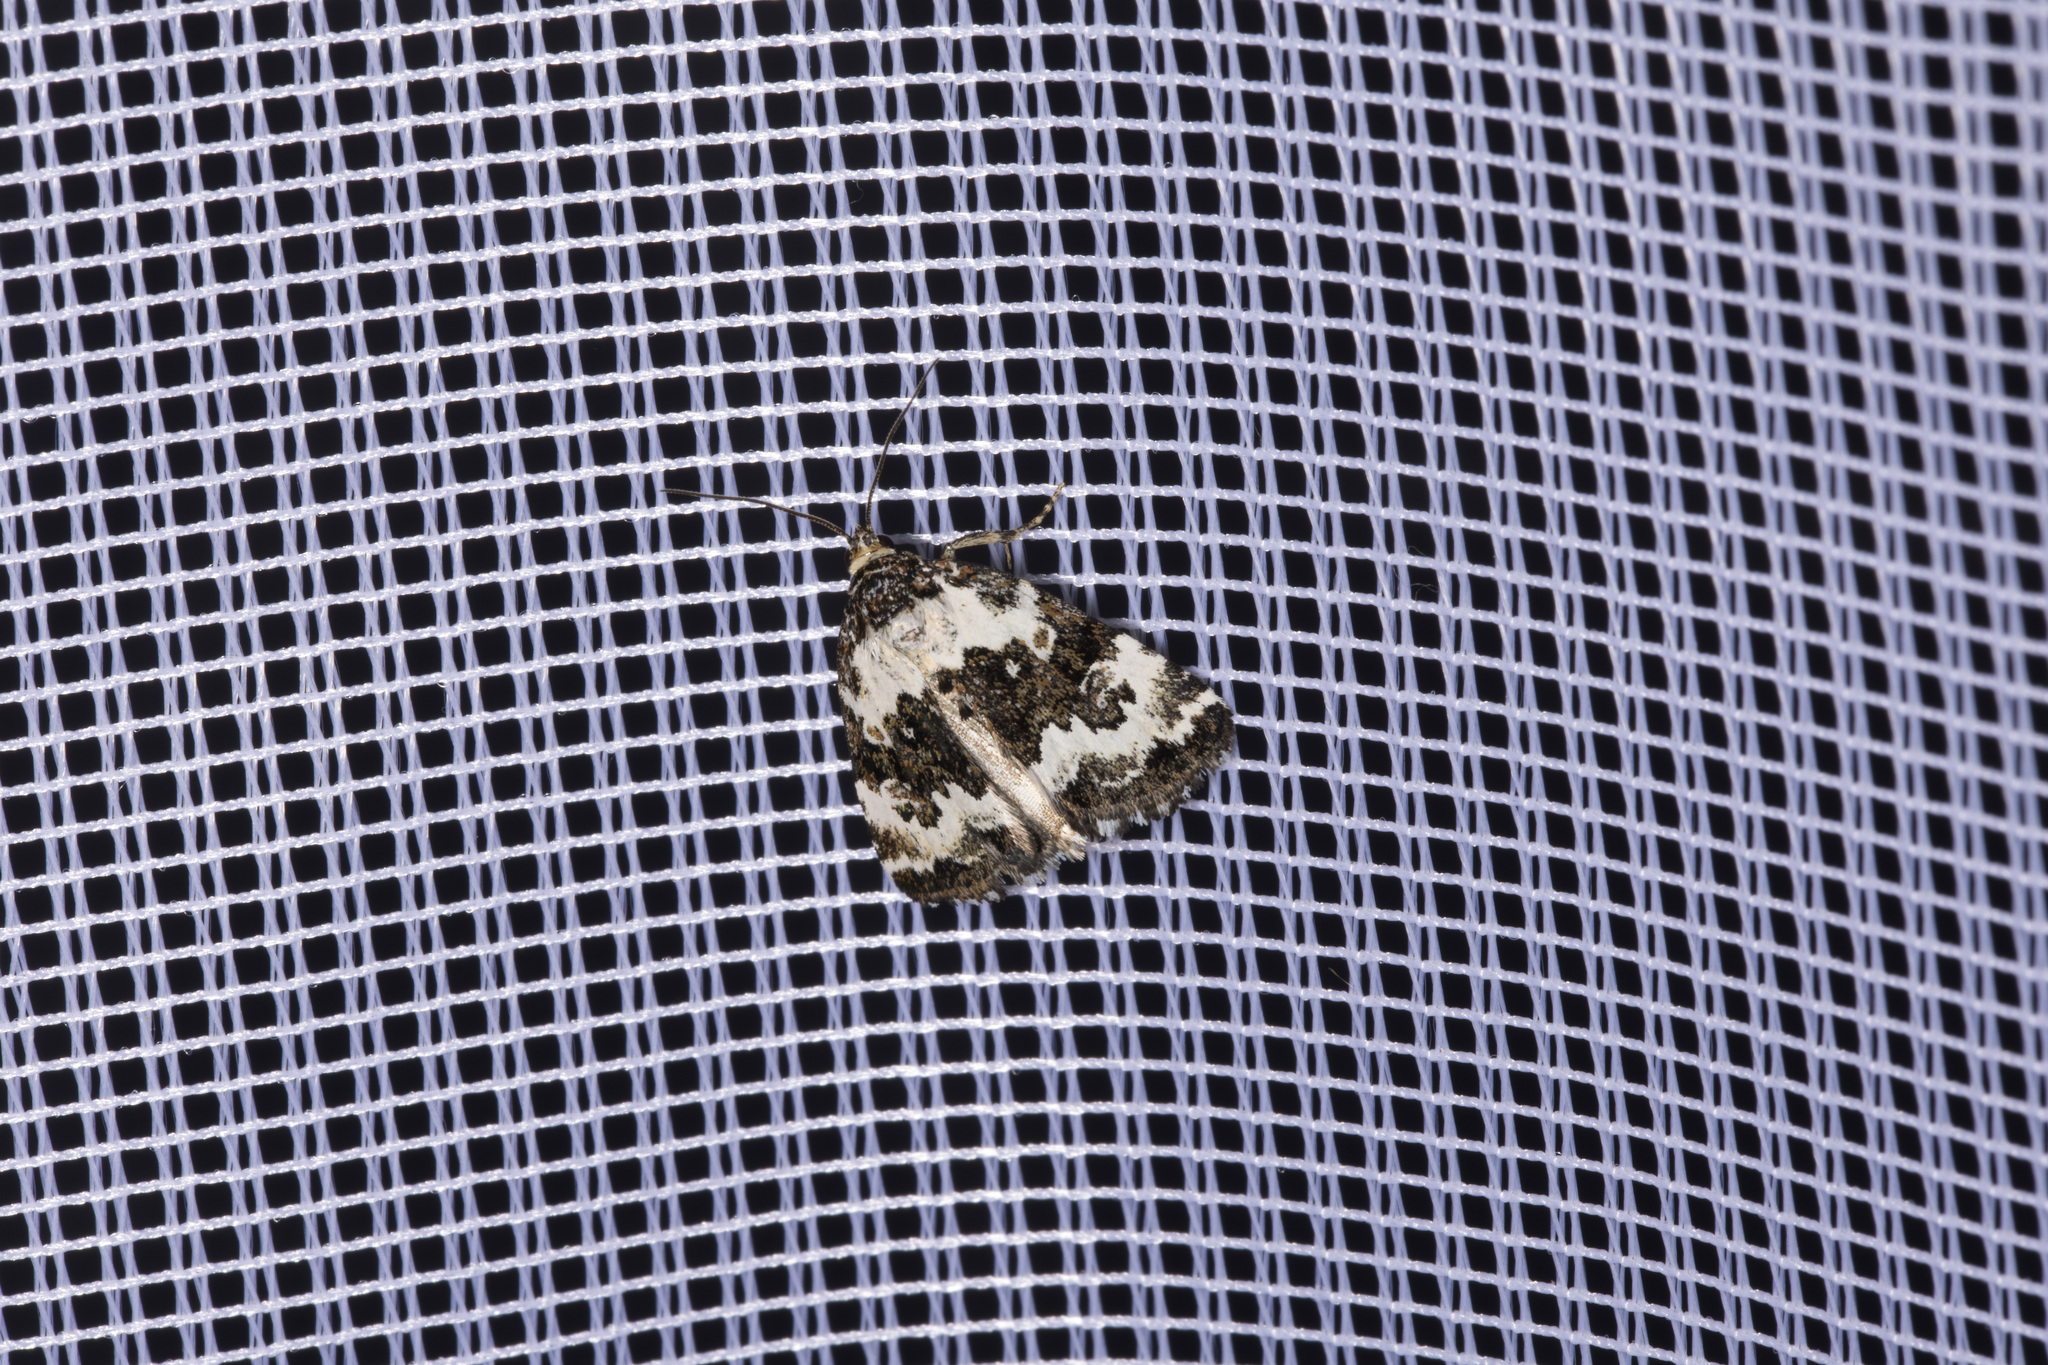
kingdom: Animalia
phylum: Arthropoda
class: Insecta
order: Lepidoptera
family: Noctuidae
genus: Deltote
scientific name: Deltote deceptoria
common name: Pretty marbled
